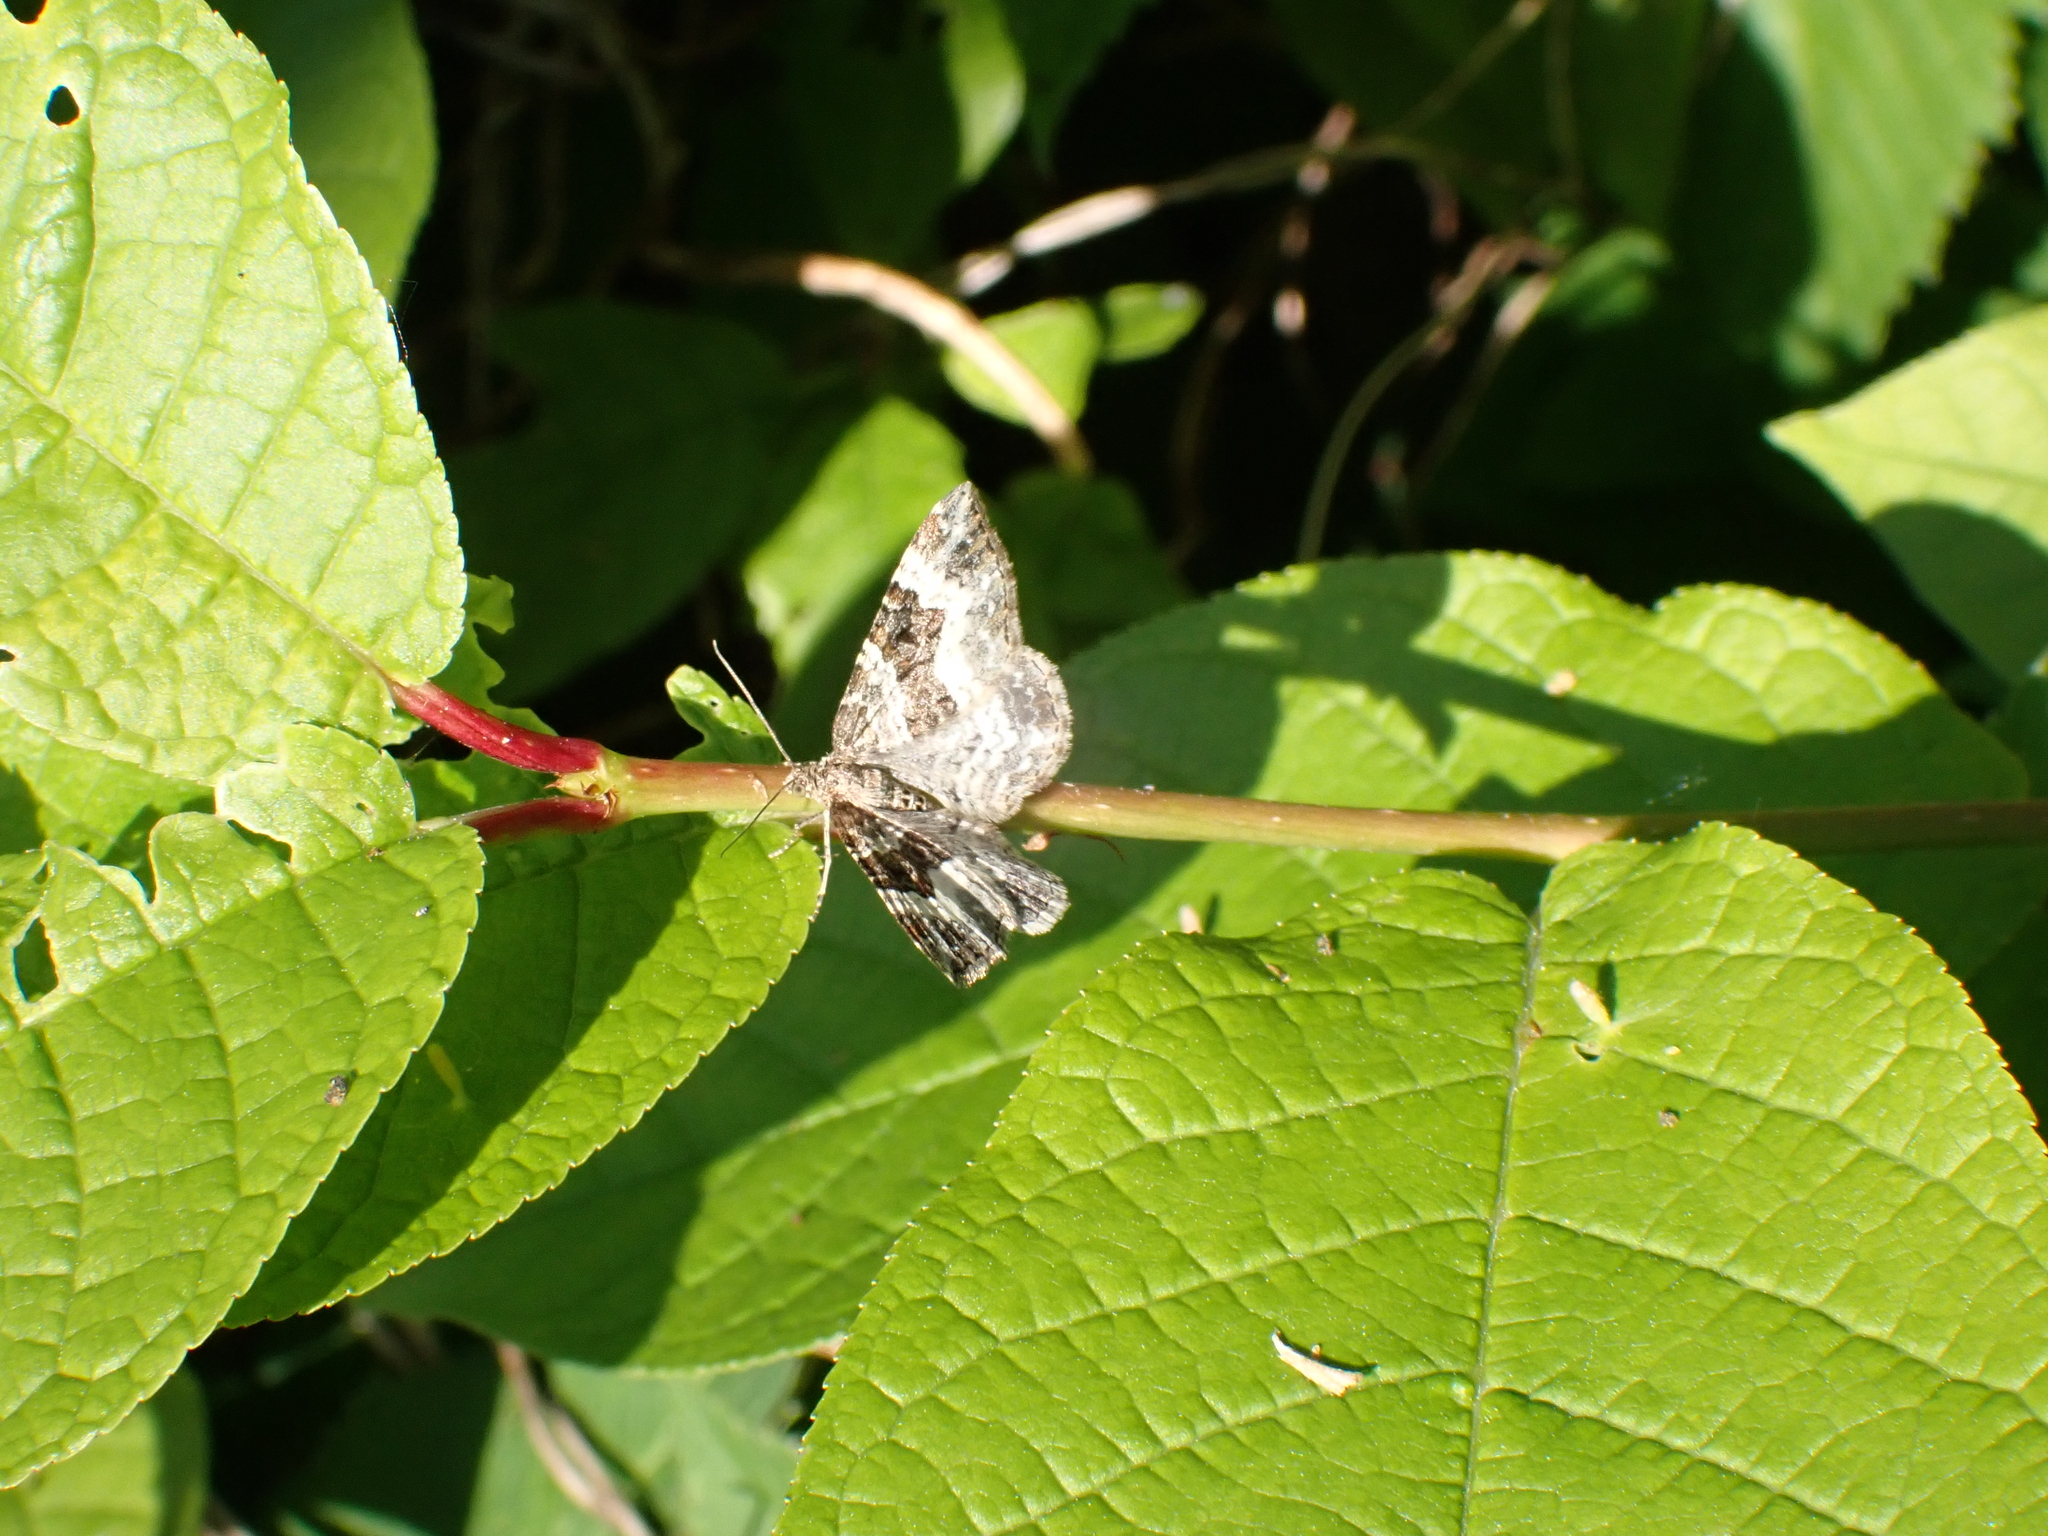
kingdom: Animalia
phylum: Arthropoda
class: Insecta
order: Lepidoptera
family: Geometridae
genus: Epirrhoe
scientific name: Epirrhoe alternata
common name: Common carpet
